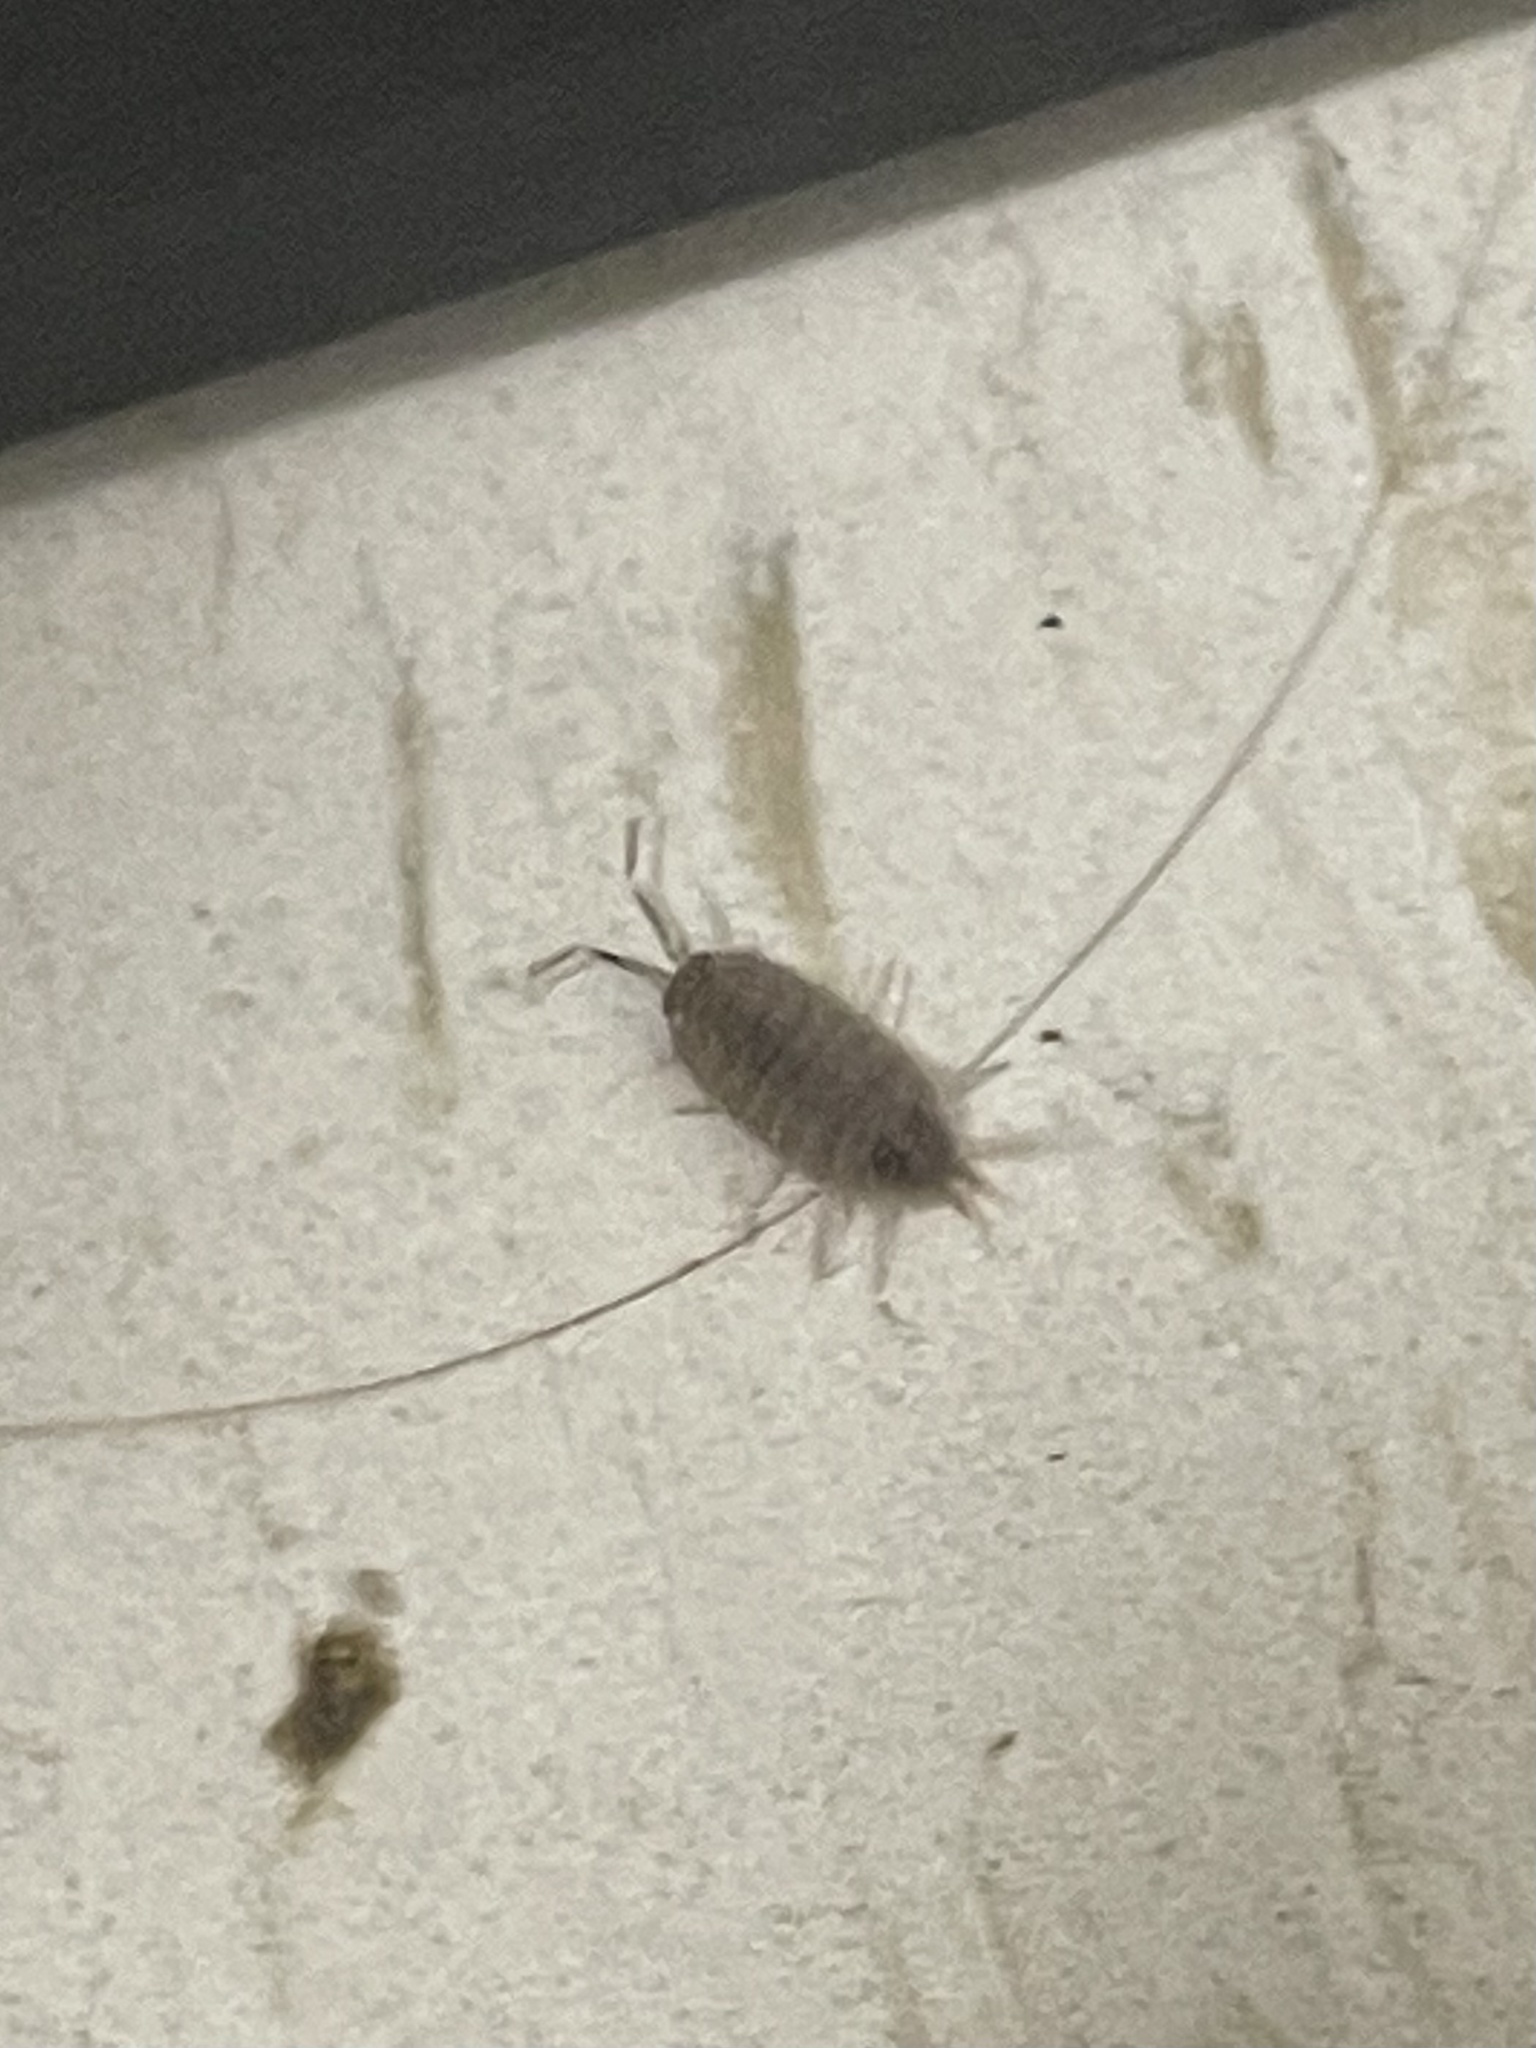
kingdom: Animalia
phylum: Arthropoda
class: Malacostraca
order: Isopoda
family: Porcellionidae
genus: Porcellionides
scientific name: Porcellionides pruinosus
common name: Plum woodlouse
